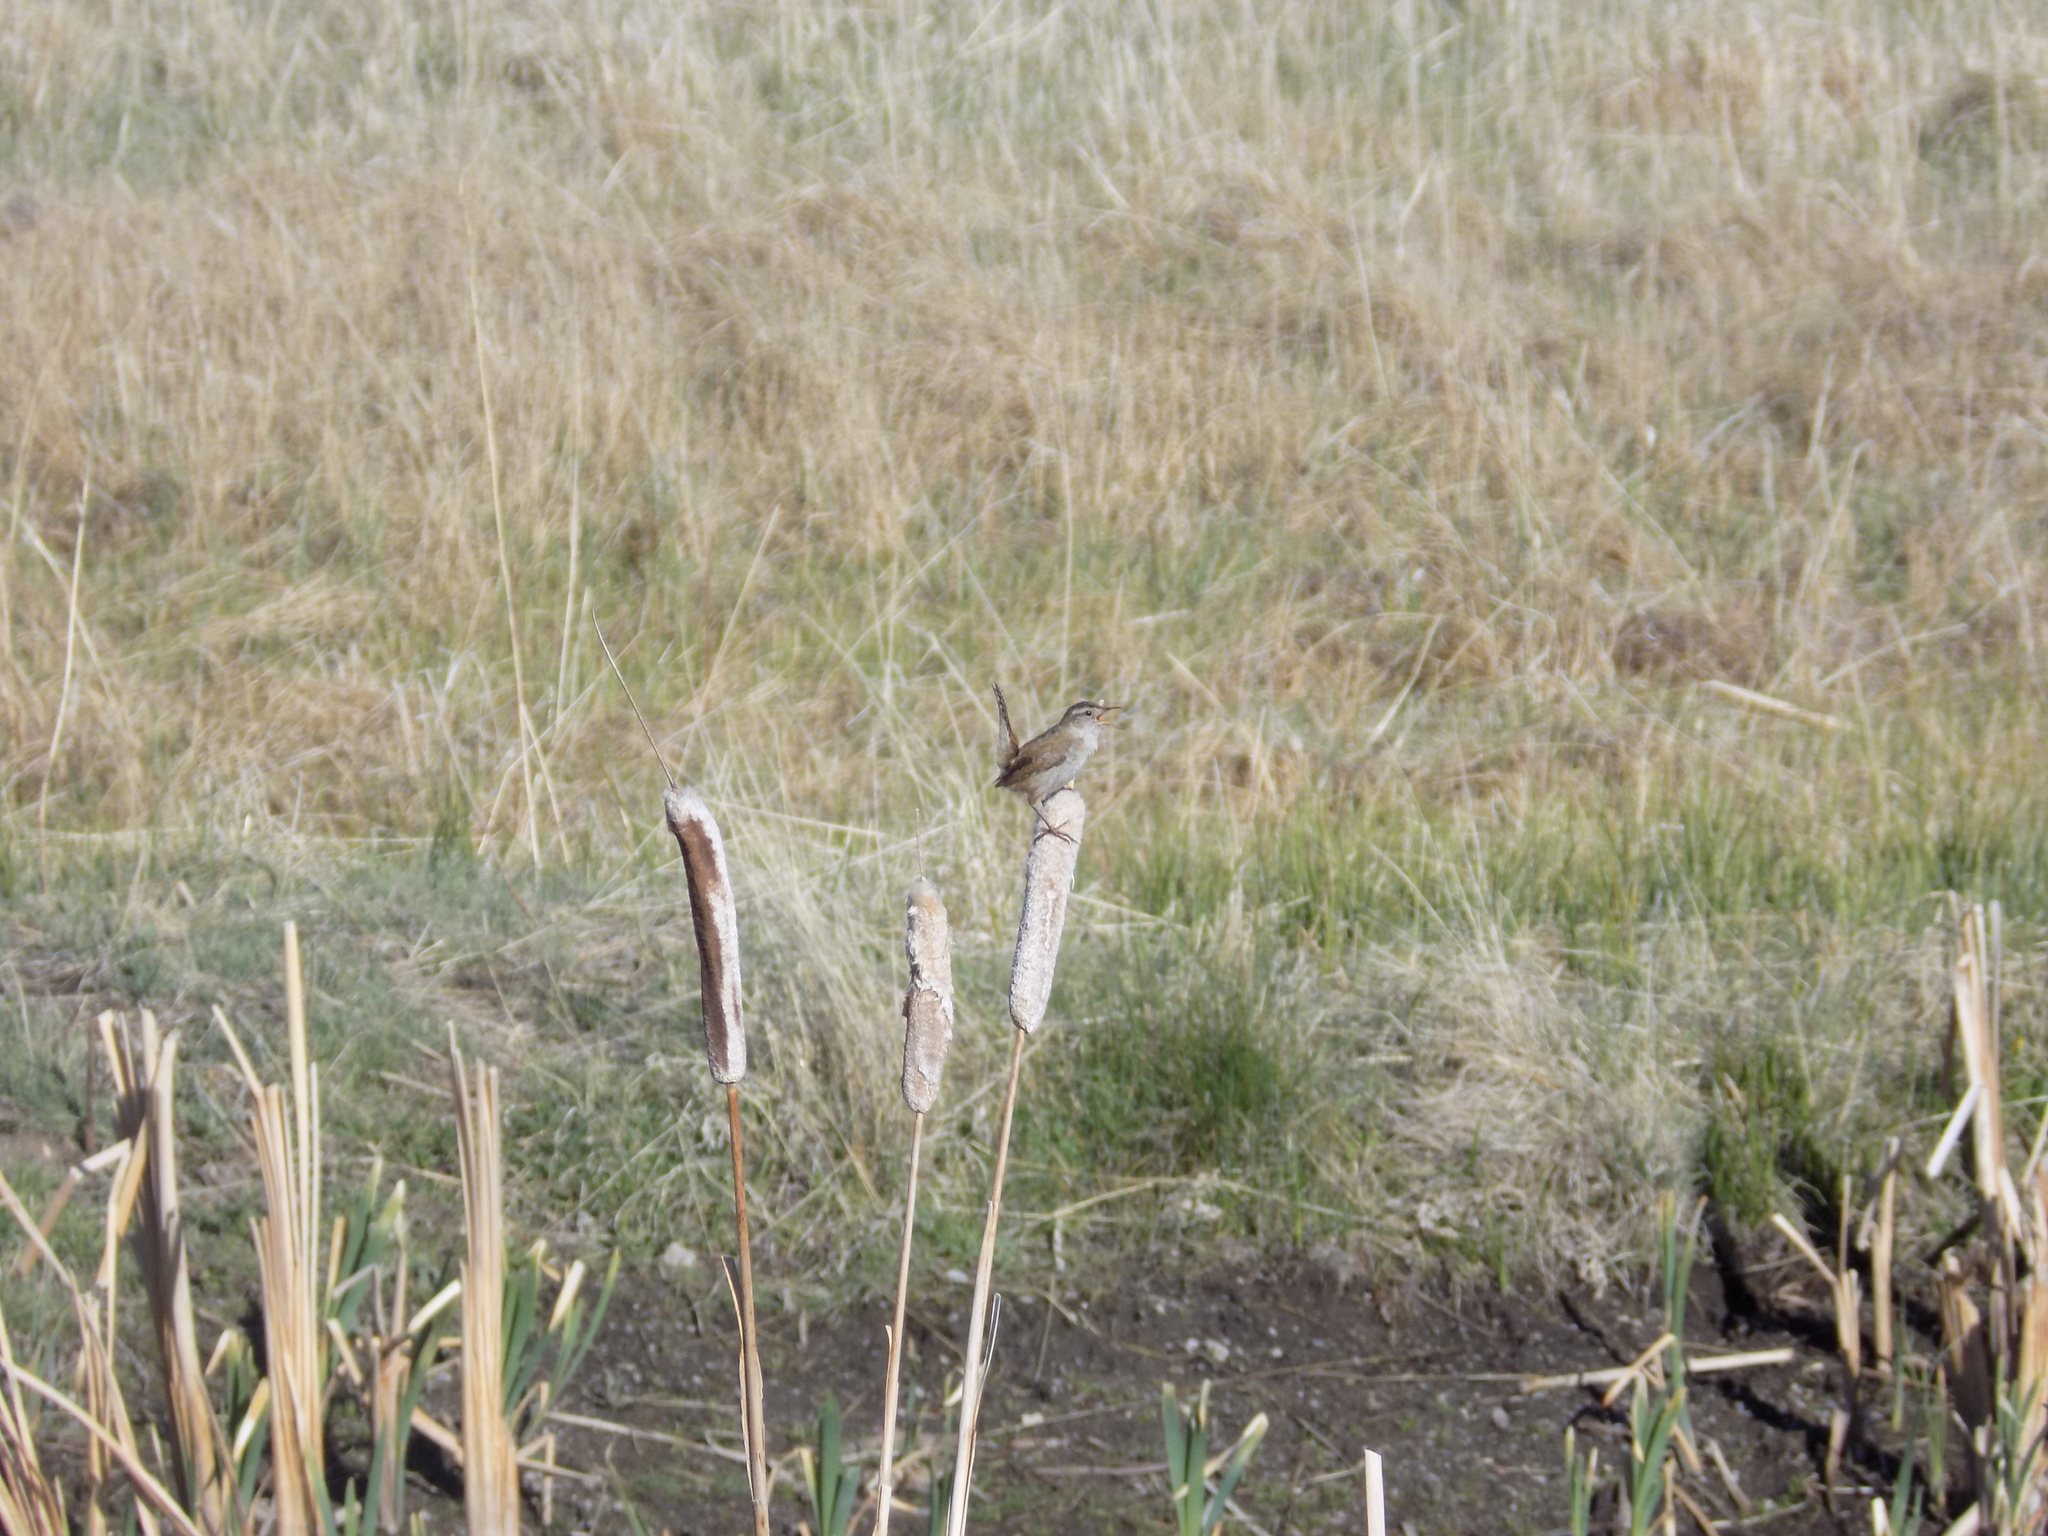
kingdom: Animalia
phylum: Chordata
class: Aves
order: Passeriformes
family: Troglodytidae
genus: Cistothorus
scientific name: Cistothorus palustris
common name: Marsh wren
